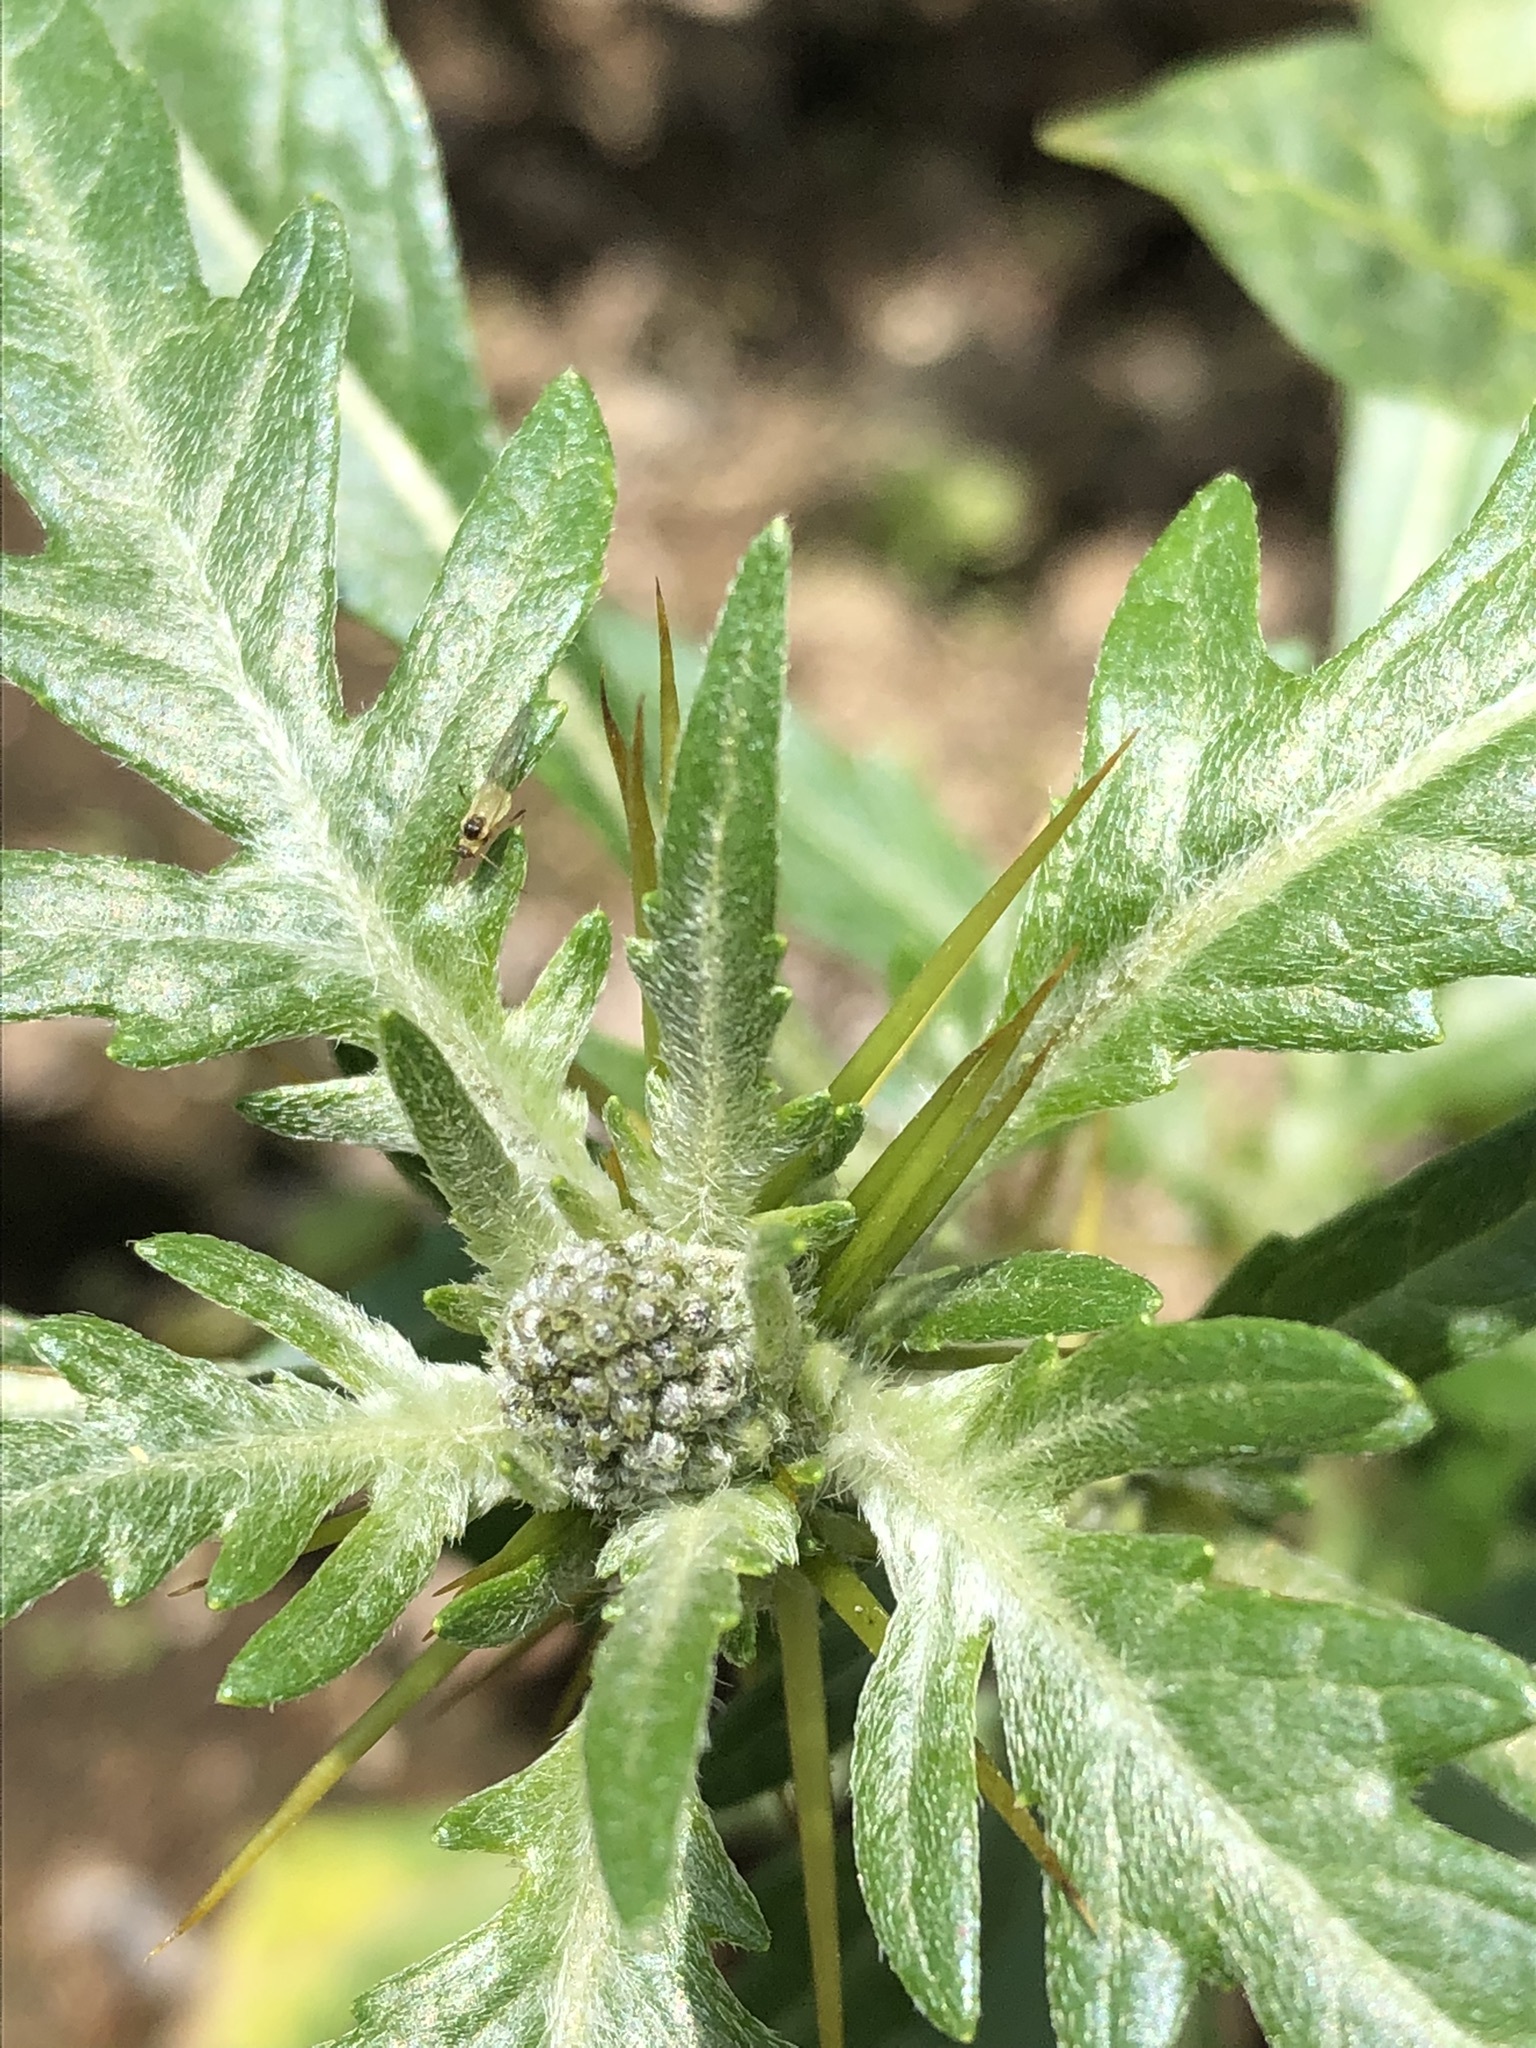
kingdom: Plantae
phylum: Tracheophyta
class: Magnoliopsida
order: Asterales
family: Asteraceae
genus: Xanthium
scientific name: Xanthium spinosum
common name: Spiny cocklebur
